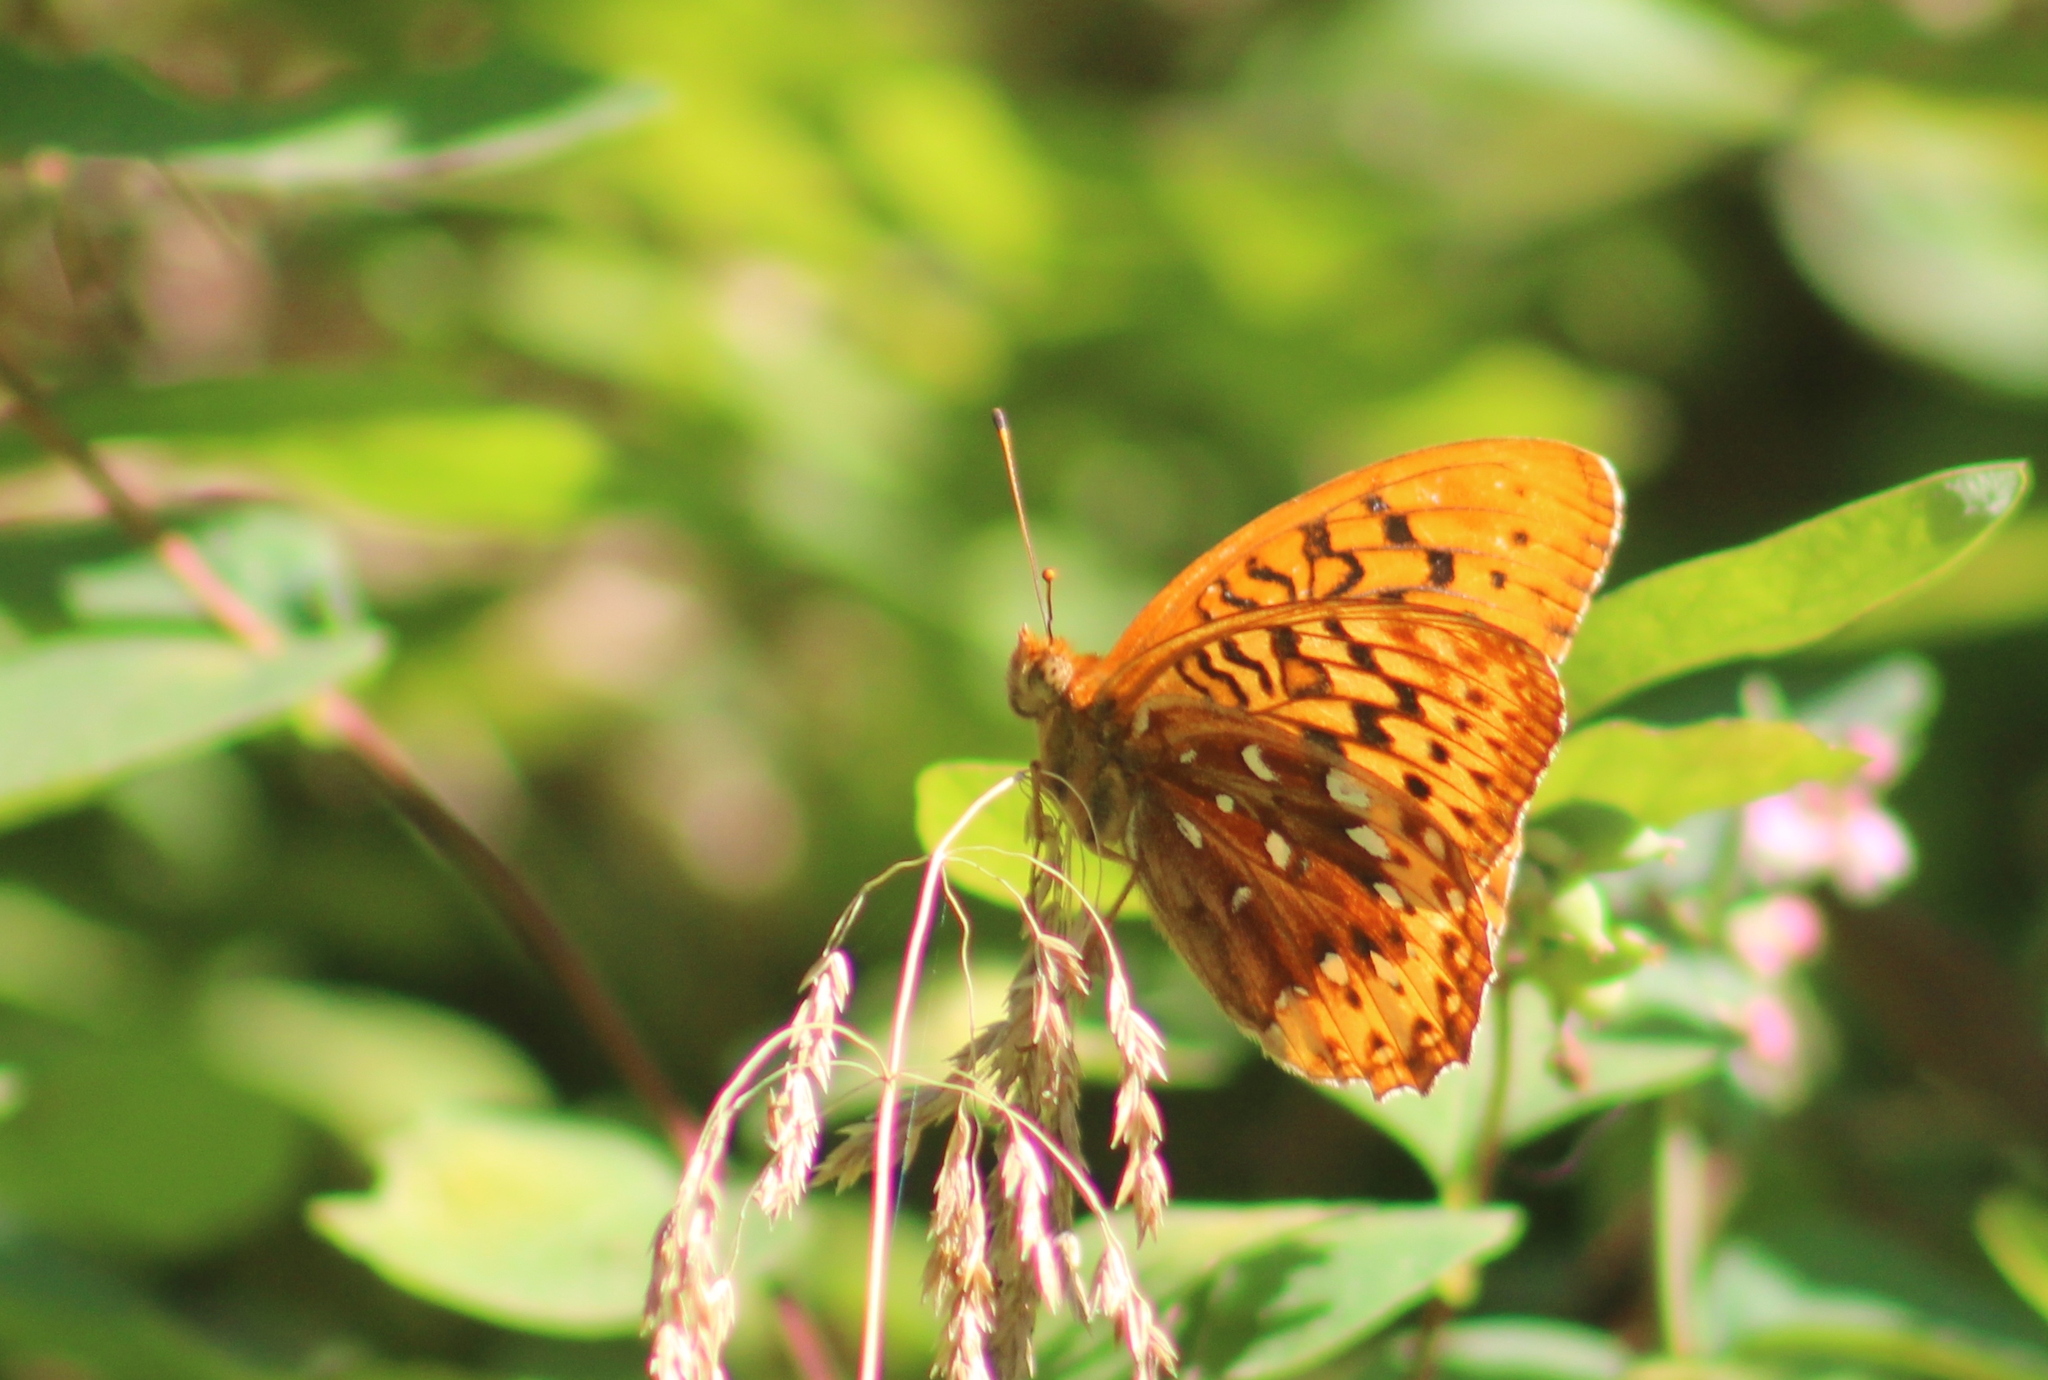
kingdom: Animalia
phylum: Arthropoda
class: Insecta
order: Lepidoptera
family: Nymphalidae
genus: Speyeria
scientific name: Speyeria cybele
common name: Great spangled fritillary
